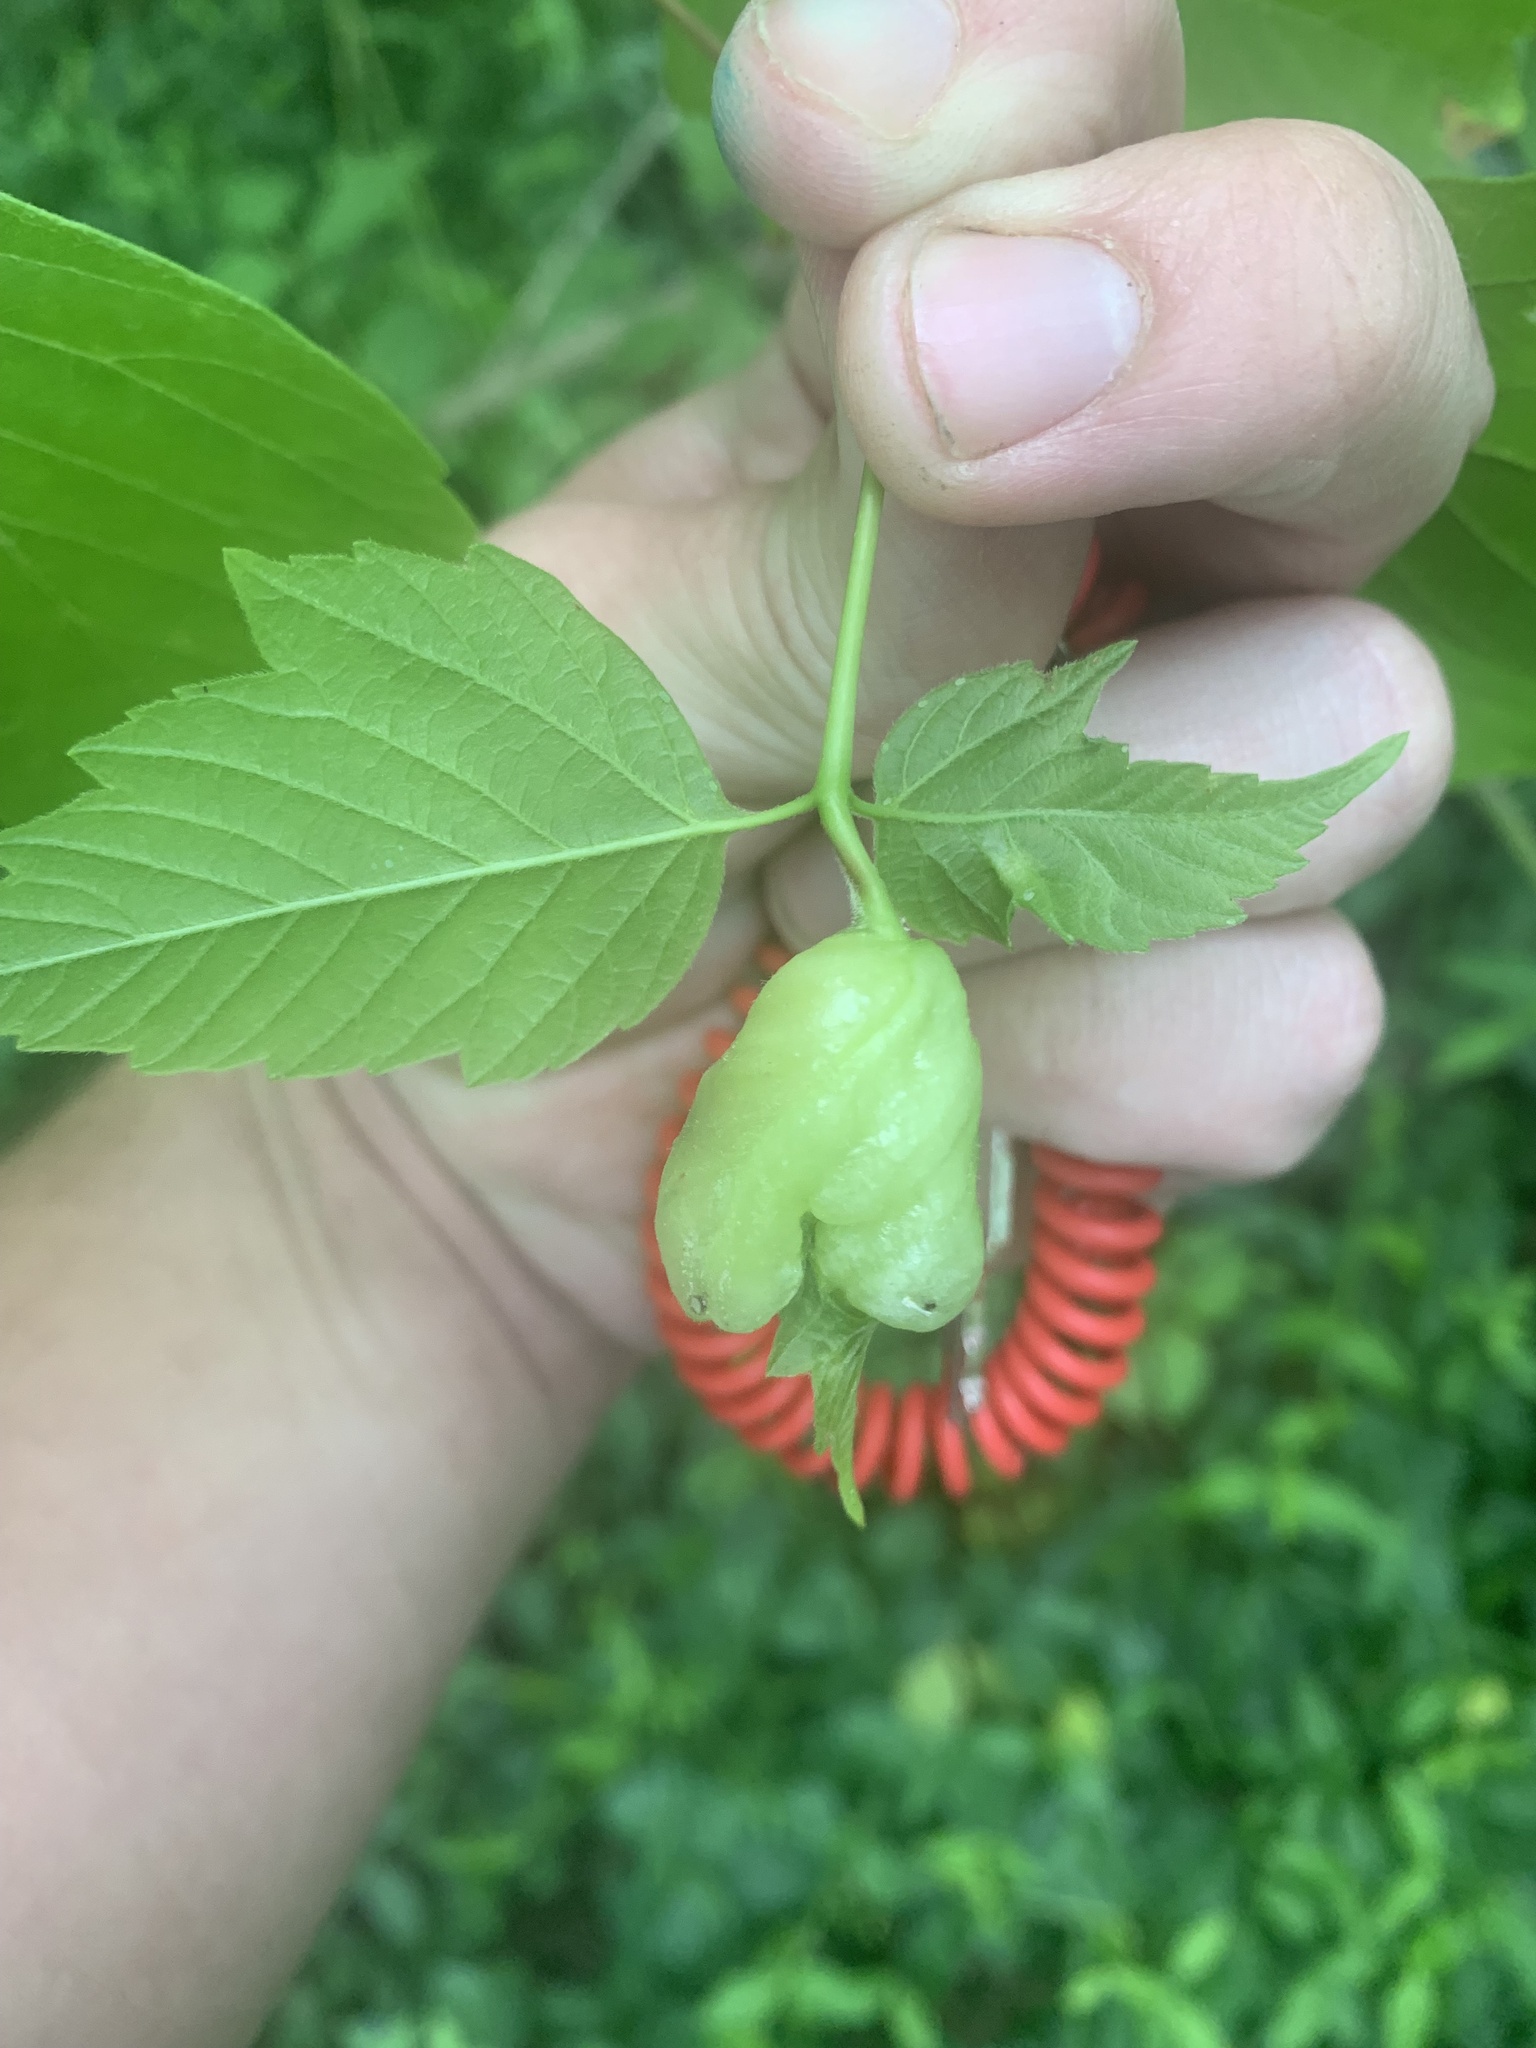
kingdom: Animalia
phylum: Arthropoda
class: Insecta
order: Diptera
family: Cecidomyiidae
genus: Contarinia
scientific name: Contarinia negundinis
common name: Boxelder budgall midge
